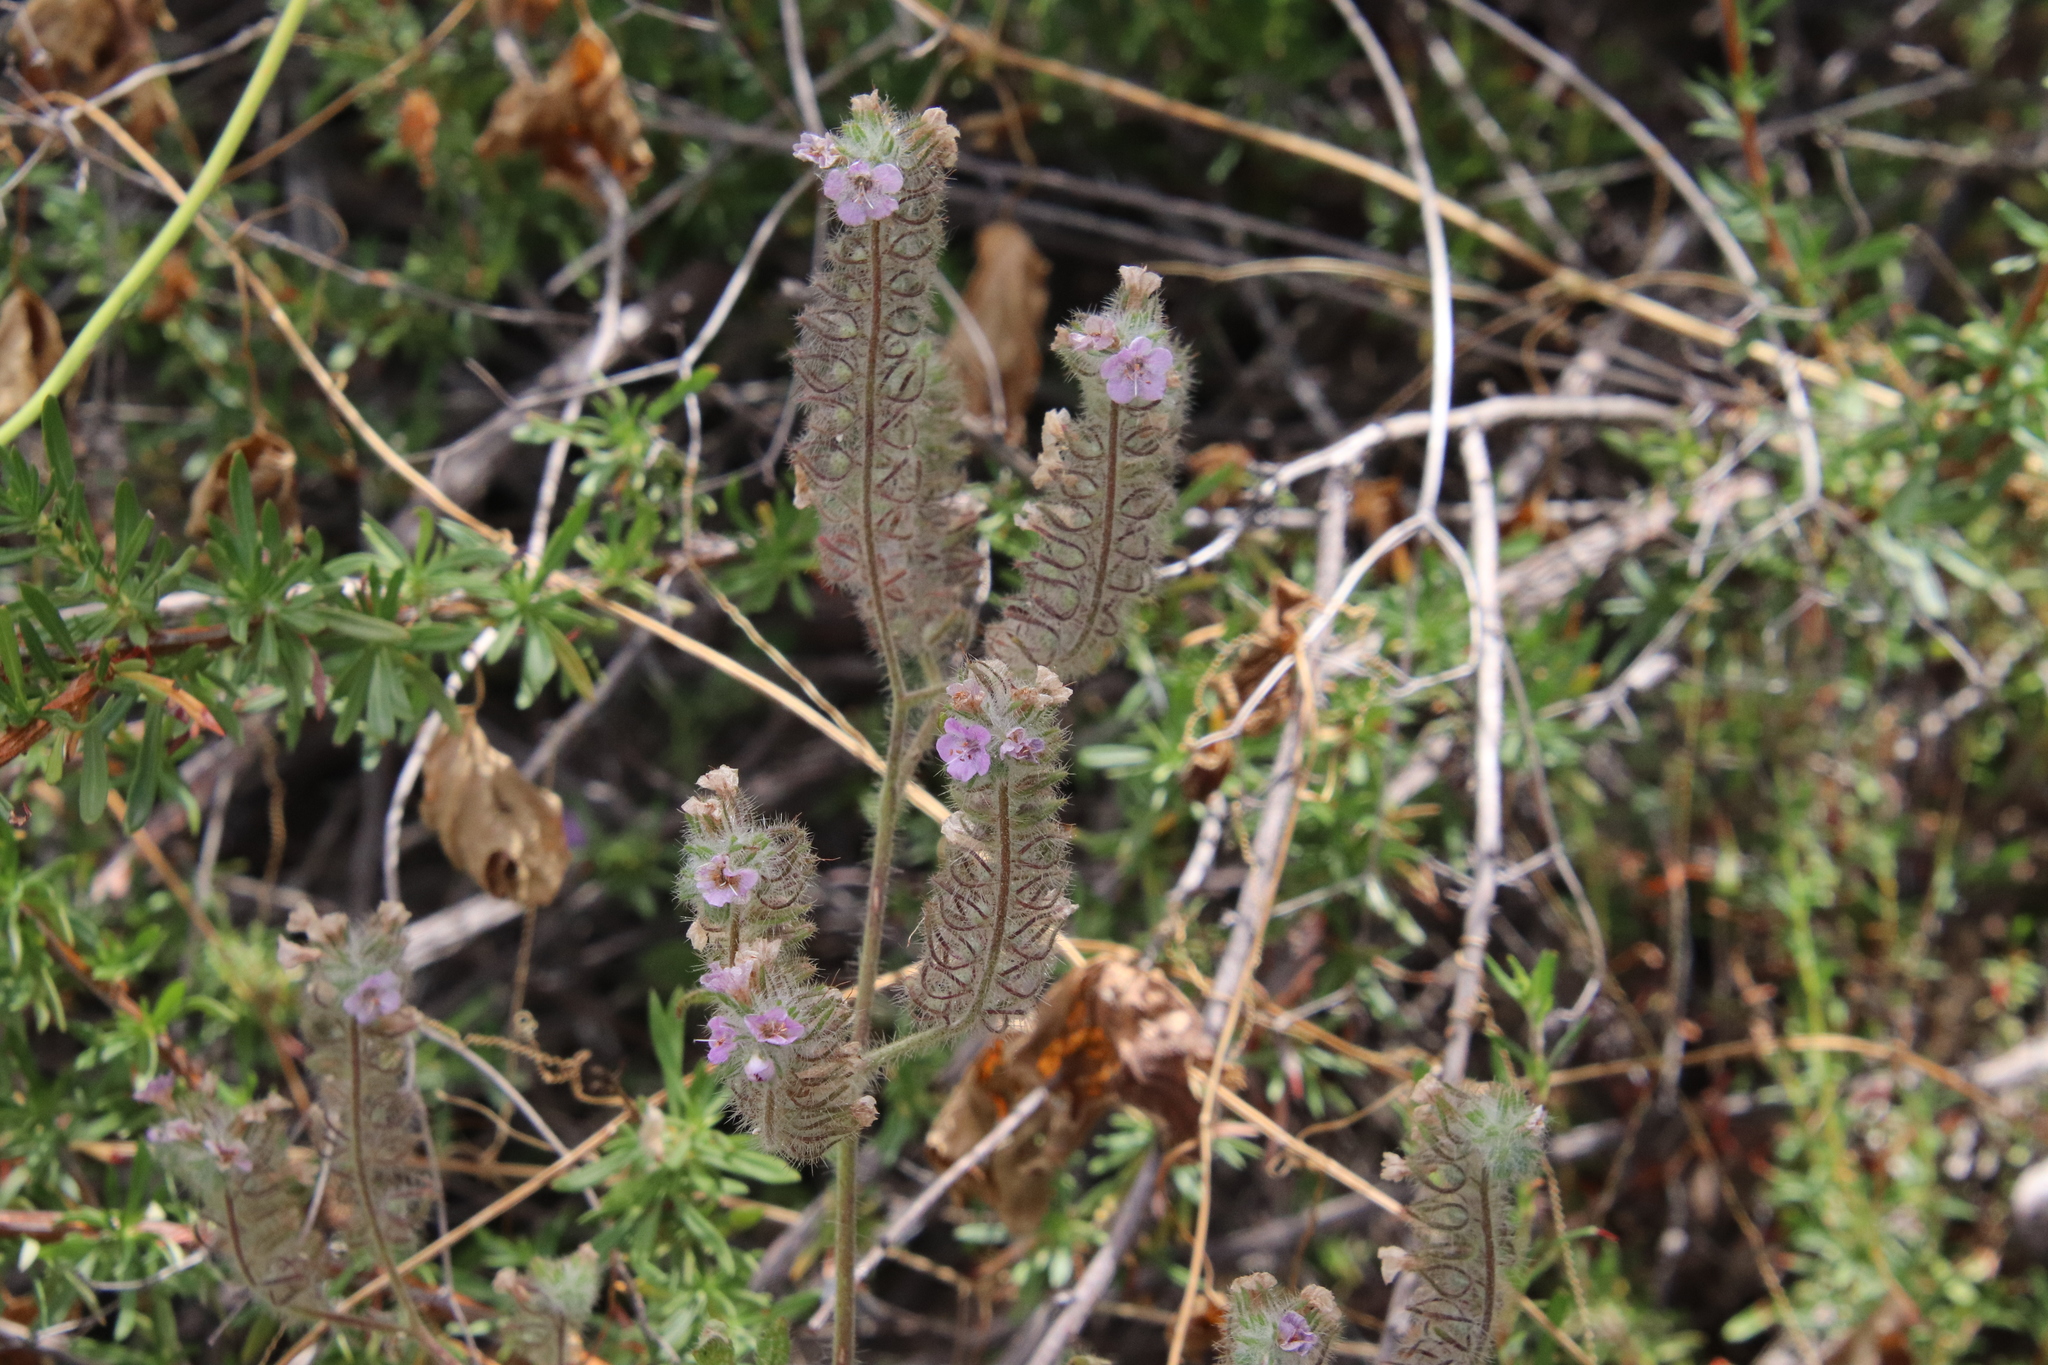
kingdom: Plantae
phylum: Tracheophyta
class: Magnoliopsida
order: Boraginales
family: Hydrophyllaceae
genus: Phacelia
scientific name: Phacelia cicutaria
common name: Caterpillar phacelia
